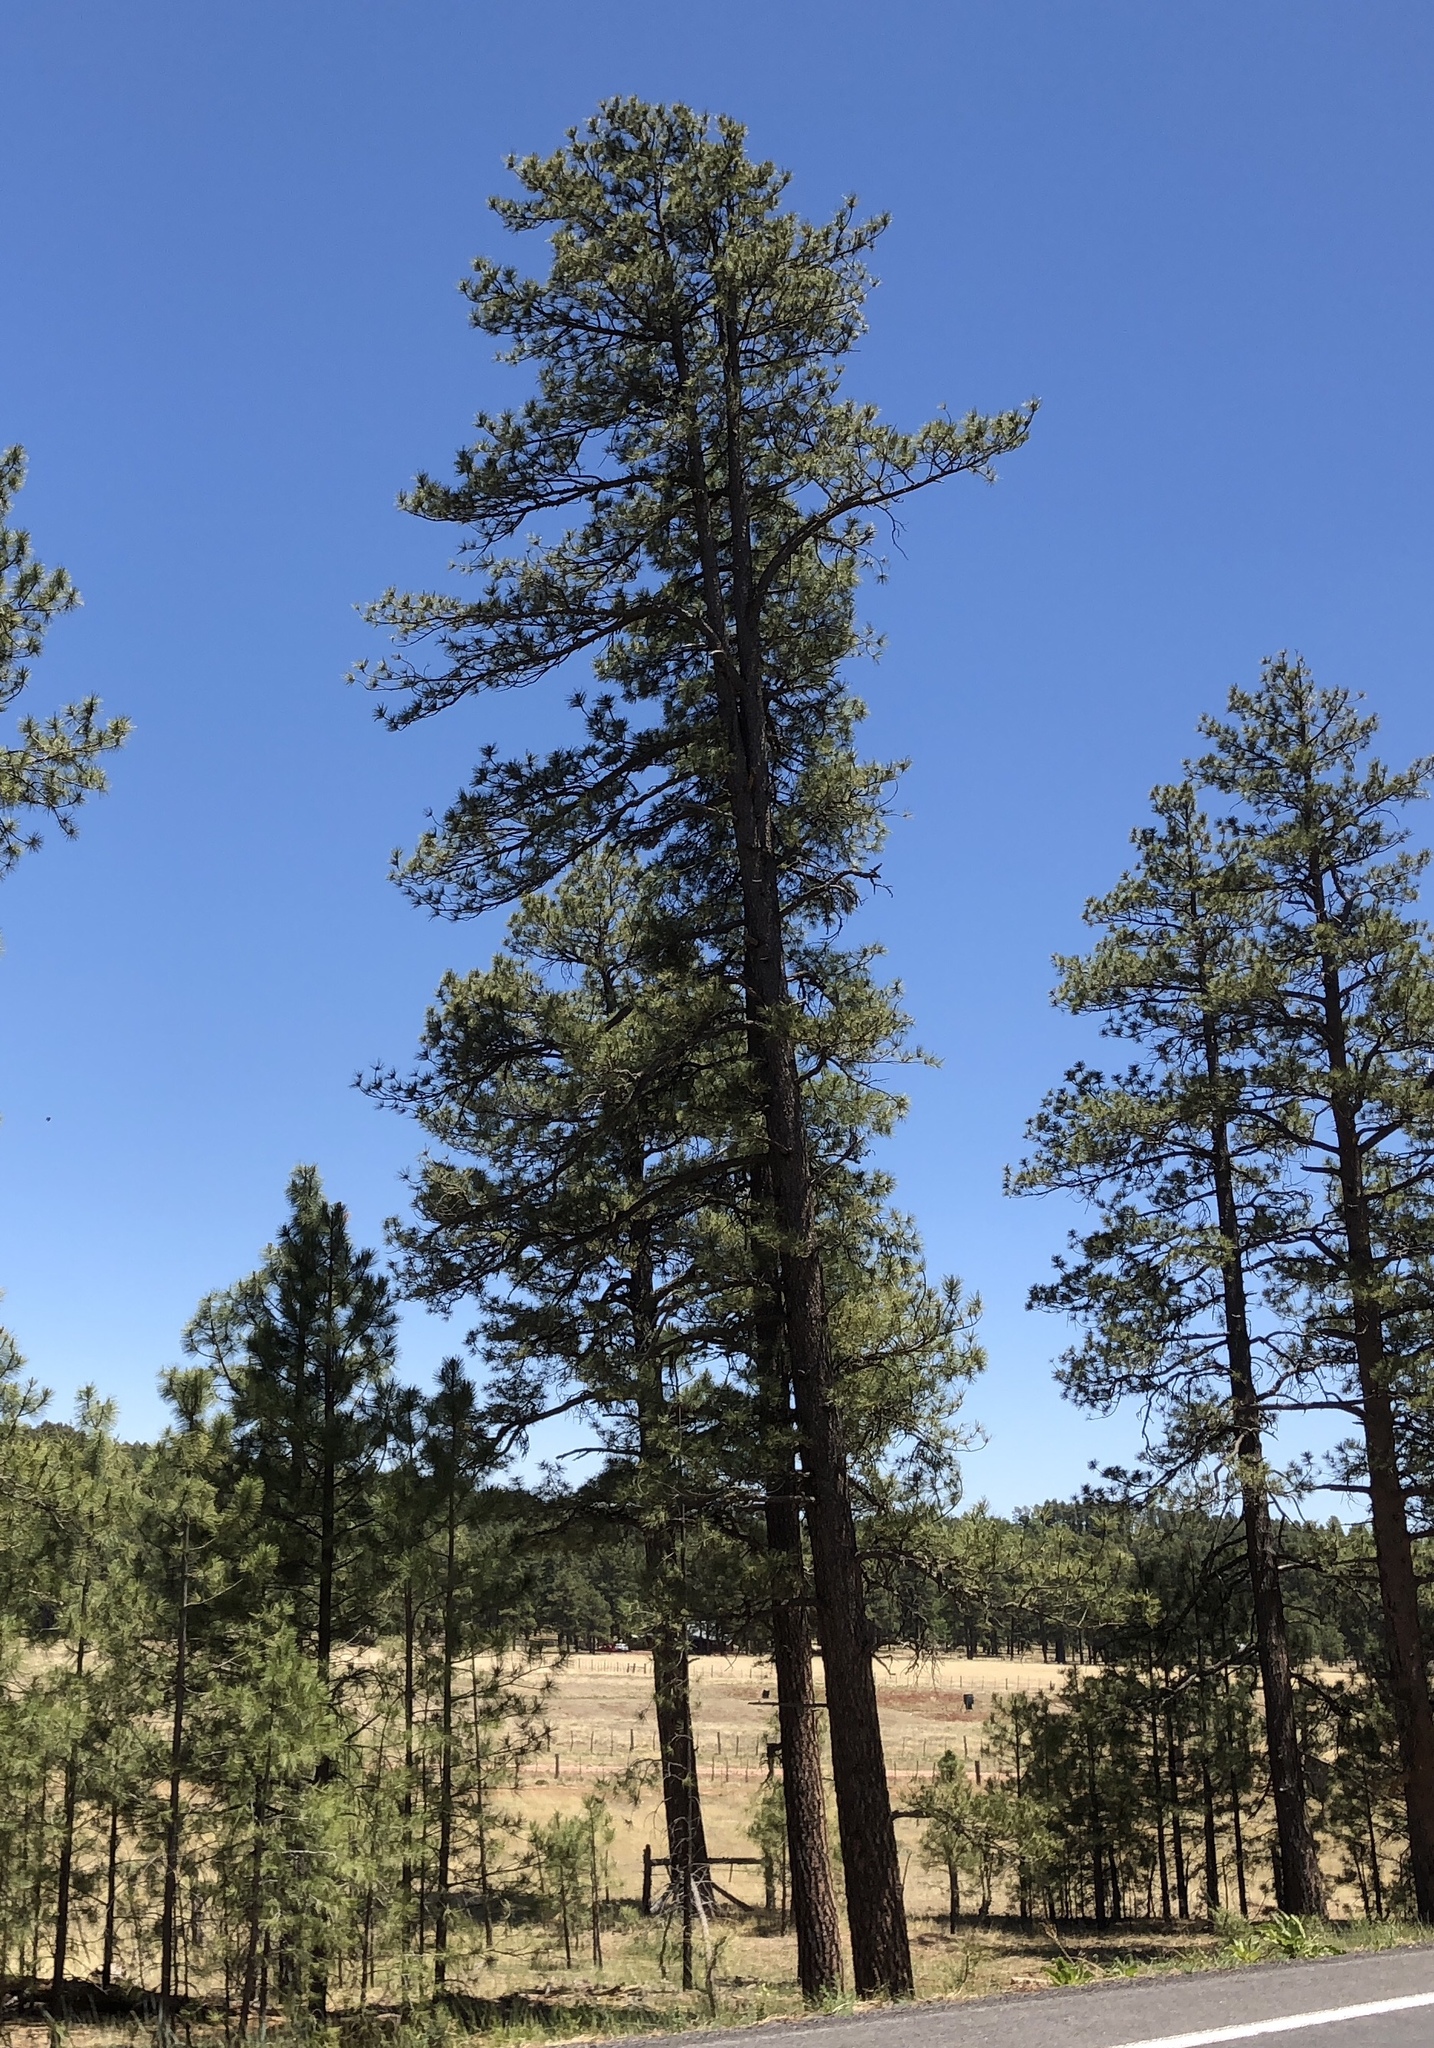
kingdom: Plantae
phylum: Tracheophyta
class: Pinopsida
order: Pinales
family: Pinaceae
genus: Pinus
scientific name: Pinus ponderosa
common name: Western yellow-pine
